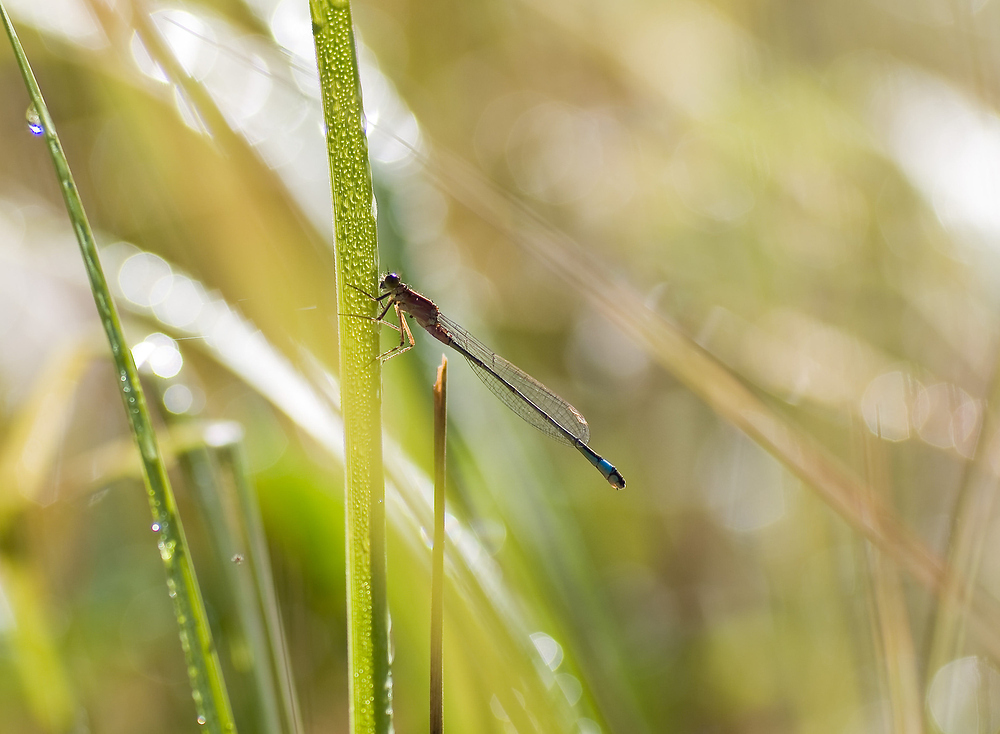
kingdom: Animalia
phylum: Arthropoda
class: Insecta
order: Odonata
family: Coenagrionidae
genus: Ischnura
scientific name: Ischnura elegans
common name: Blue-tailed damselfly
